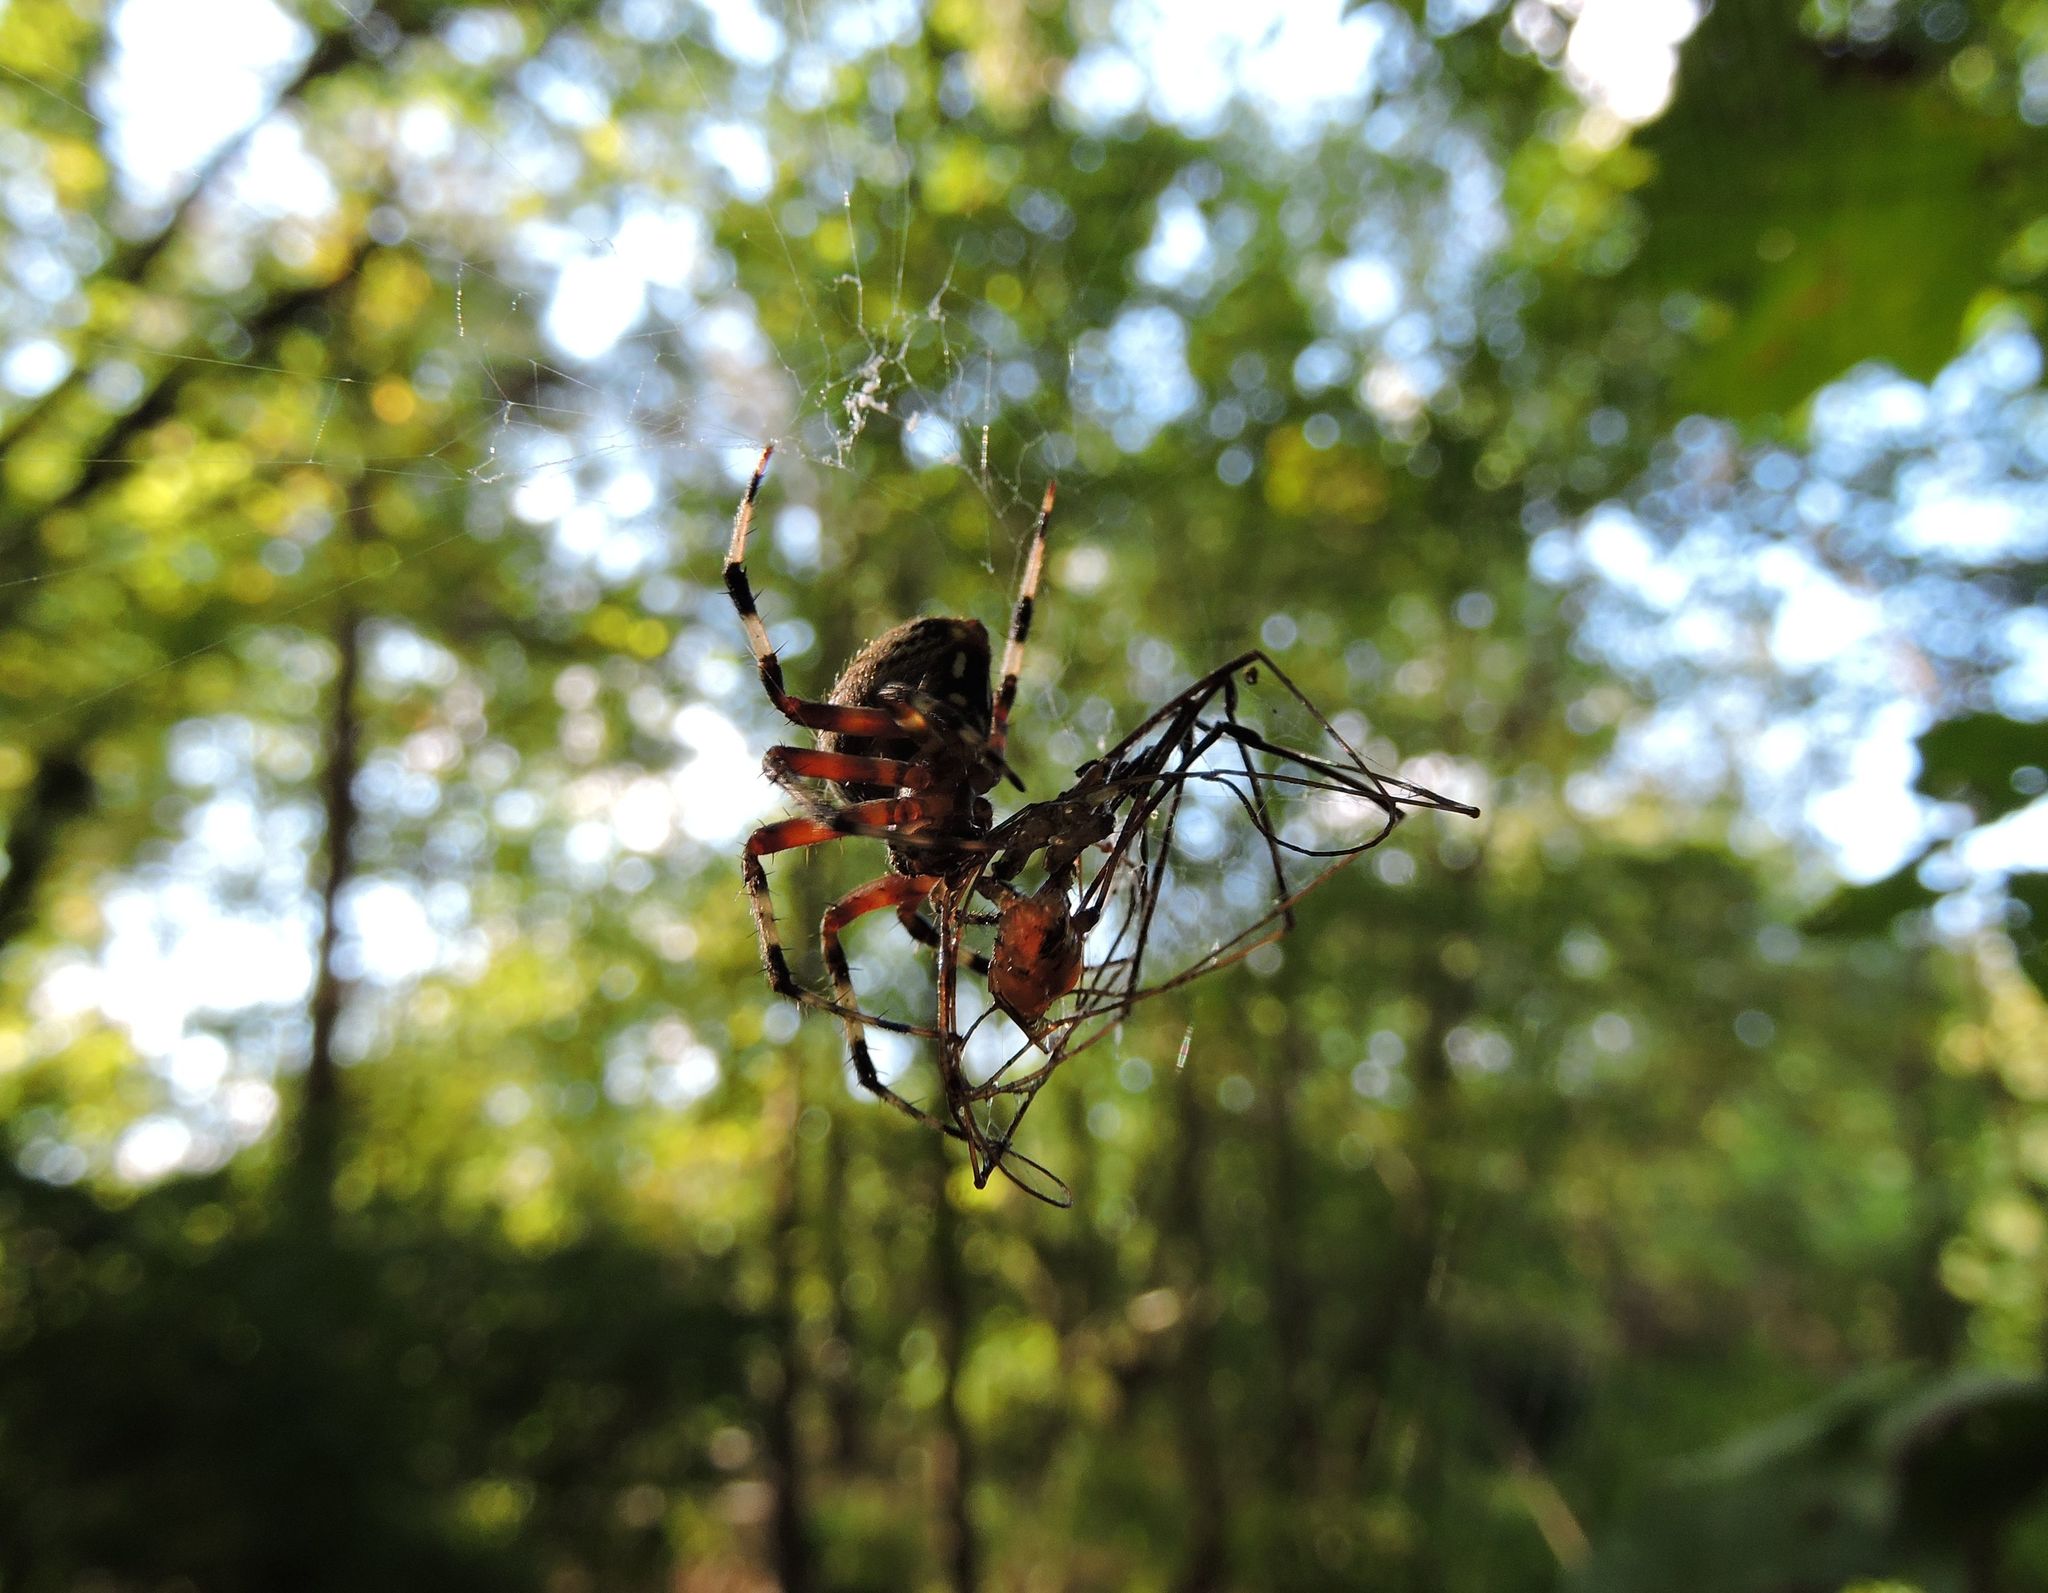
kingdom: Animalia
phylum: Arthropoda
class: Arachnida
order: Araneae
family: Araneidae
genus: Neoscona
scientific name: Neoscona domiciliorum
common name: Red-femured spotted orbweaver
